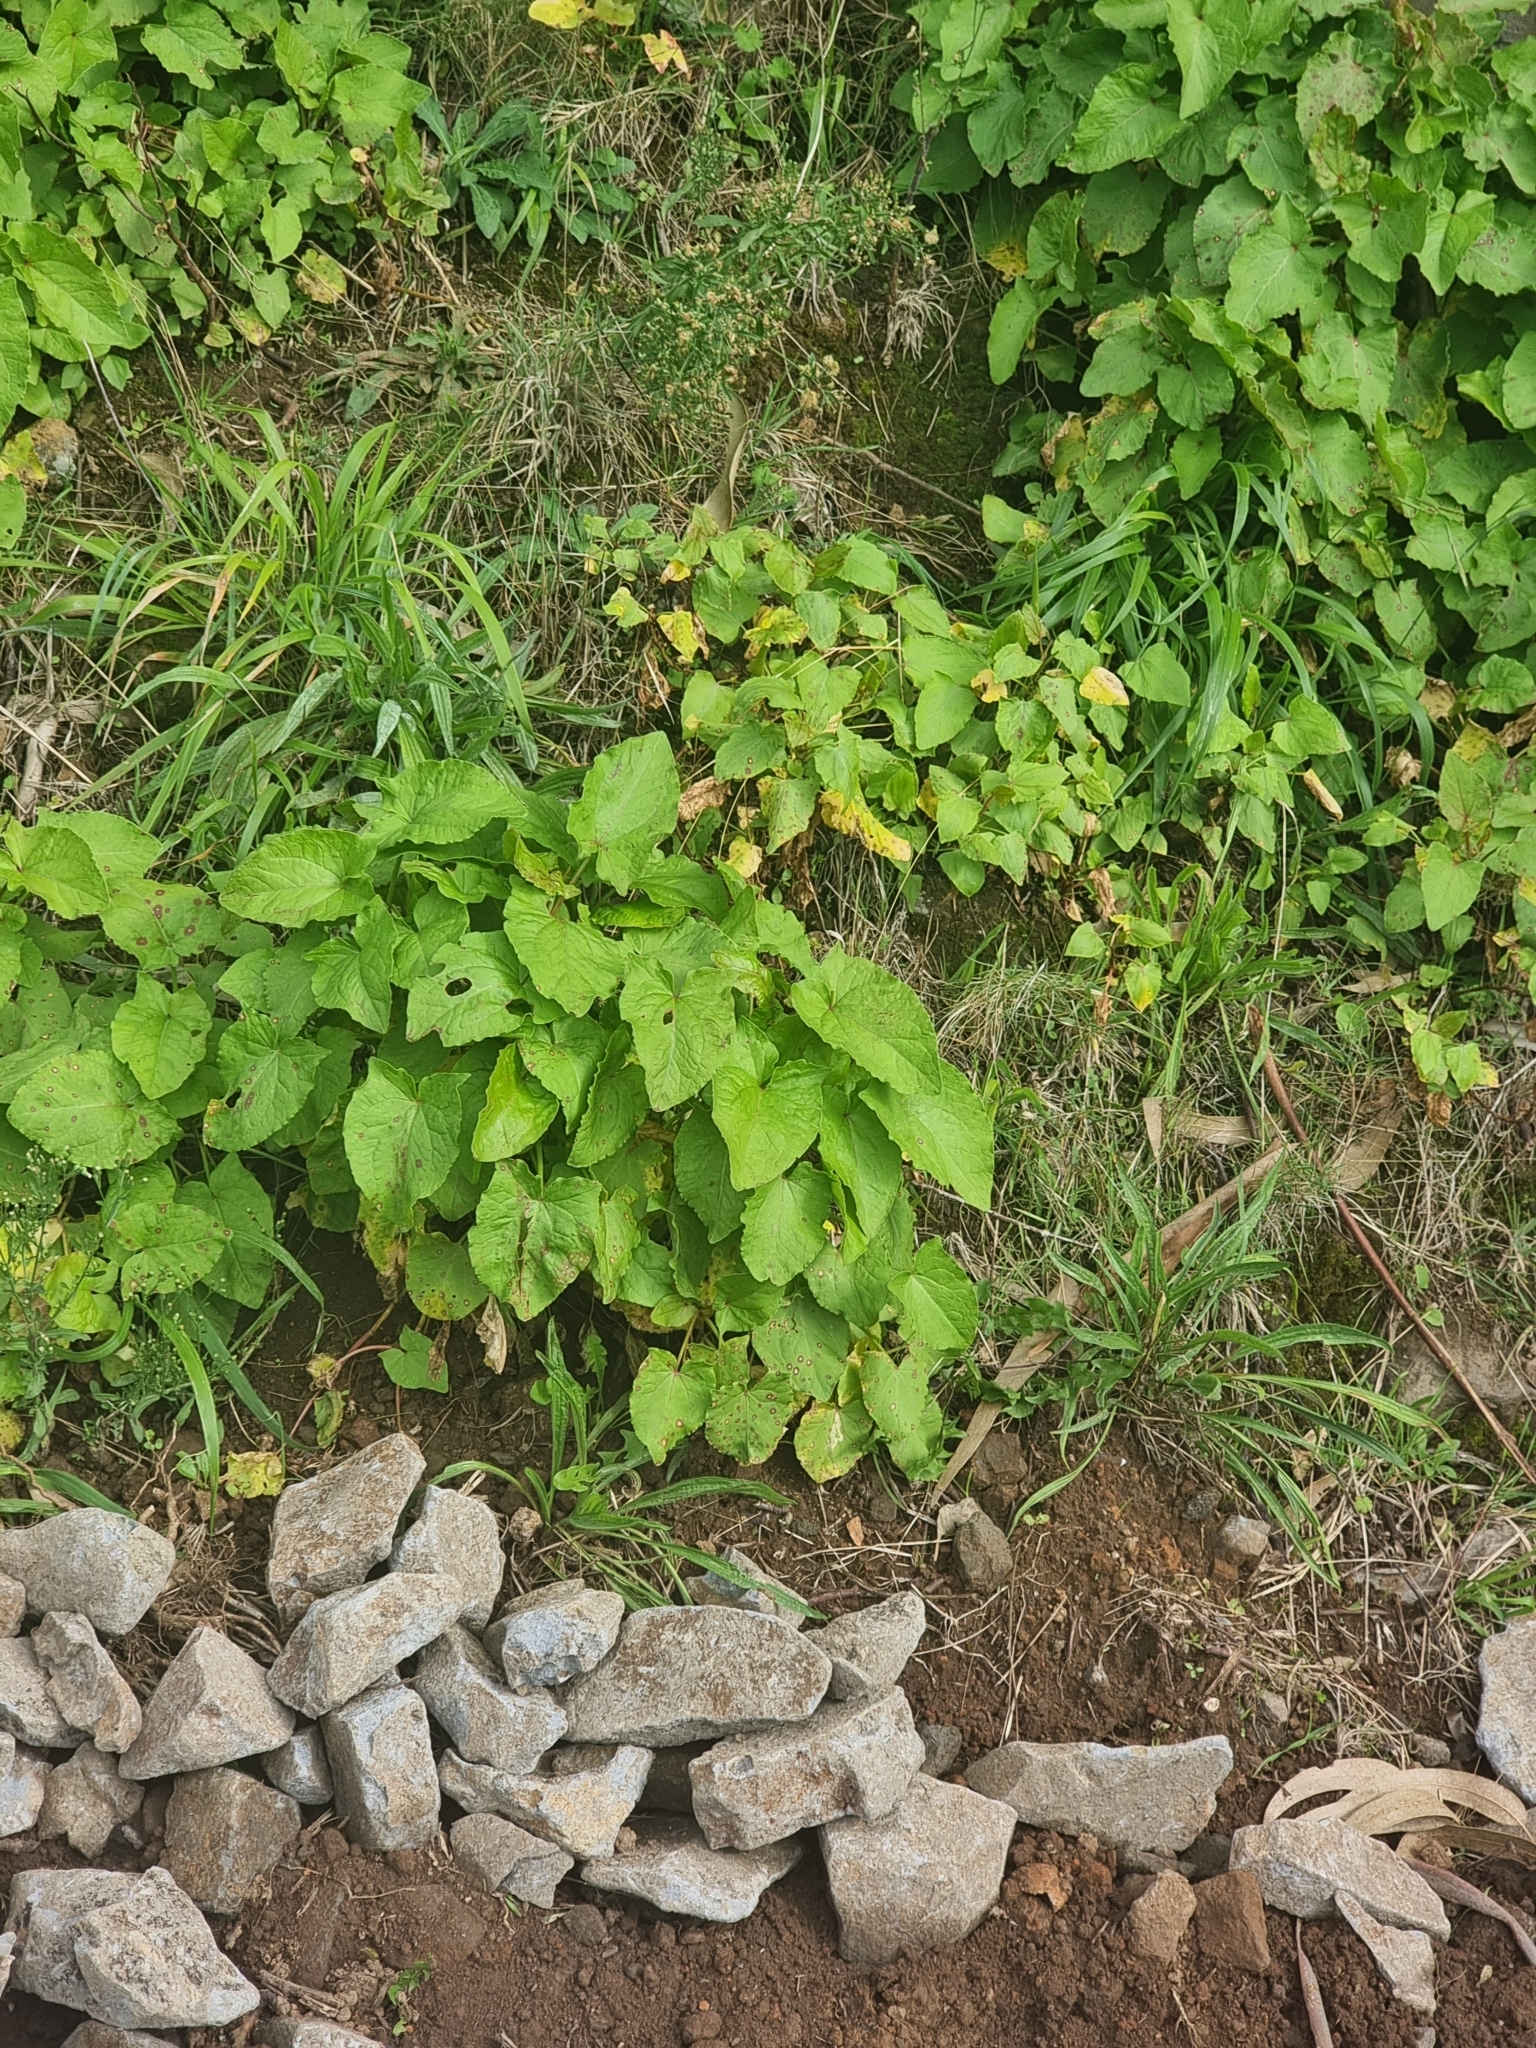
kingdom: Plantae
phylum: Tracheophyta
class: Magnoliopsida
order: Caryophyllales
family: Polygonaceae
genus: Rumex
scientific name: Rumex maderensis
